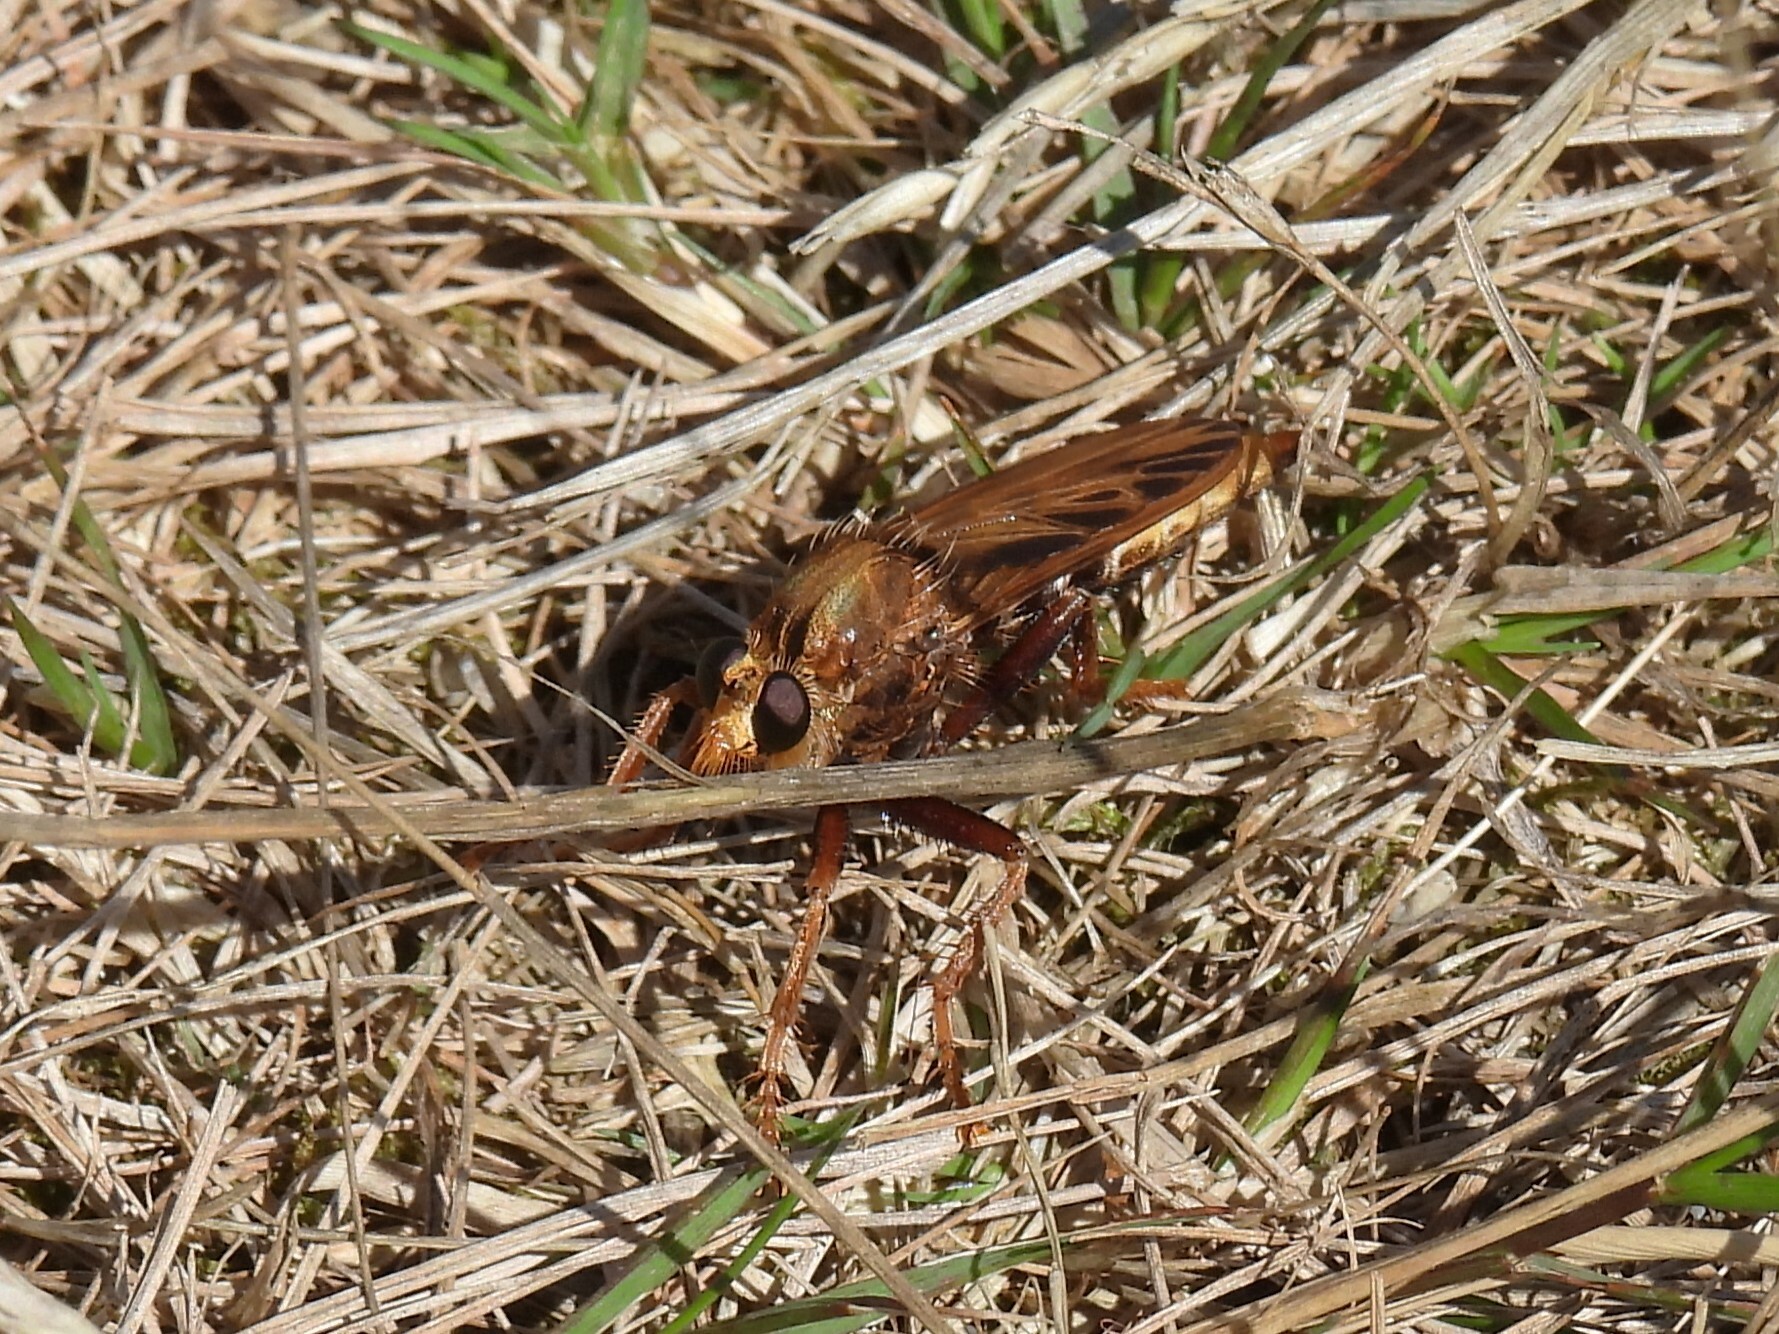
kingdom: Animalia
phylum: Arthropoda
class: Insecta
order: Diptera
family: Asilidae
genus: Asilus
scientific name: Asilus crabroniformis
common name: Hornet robberfly
